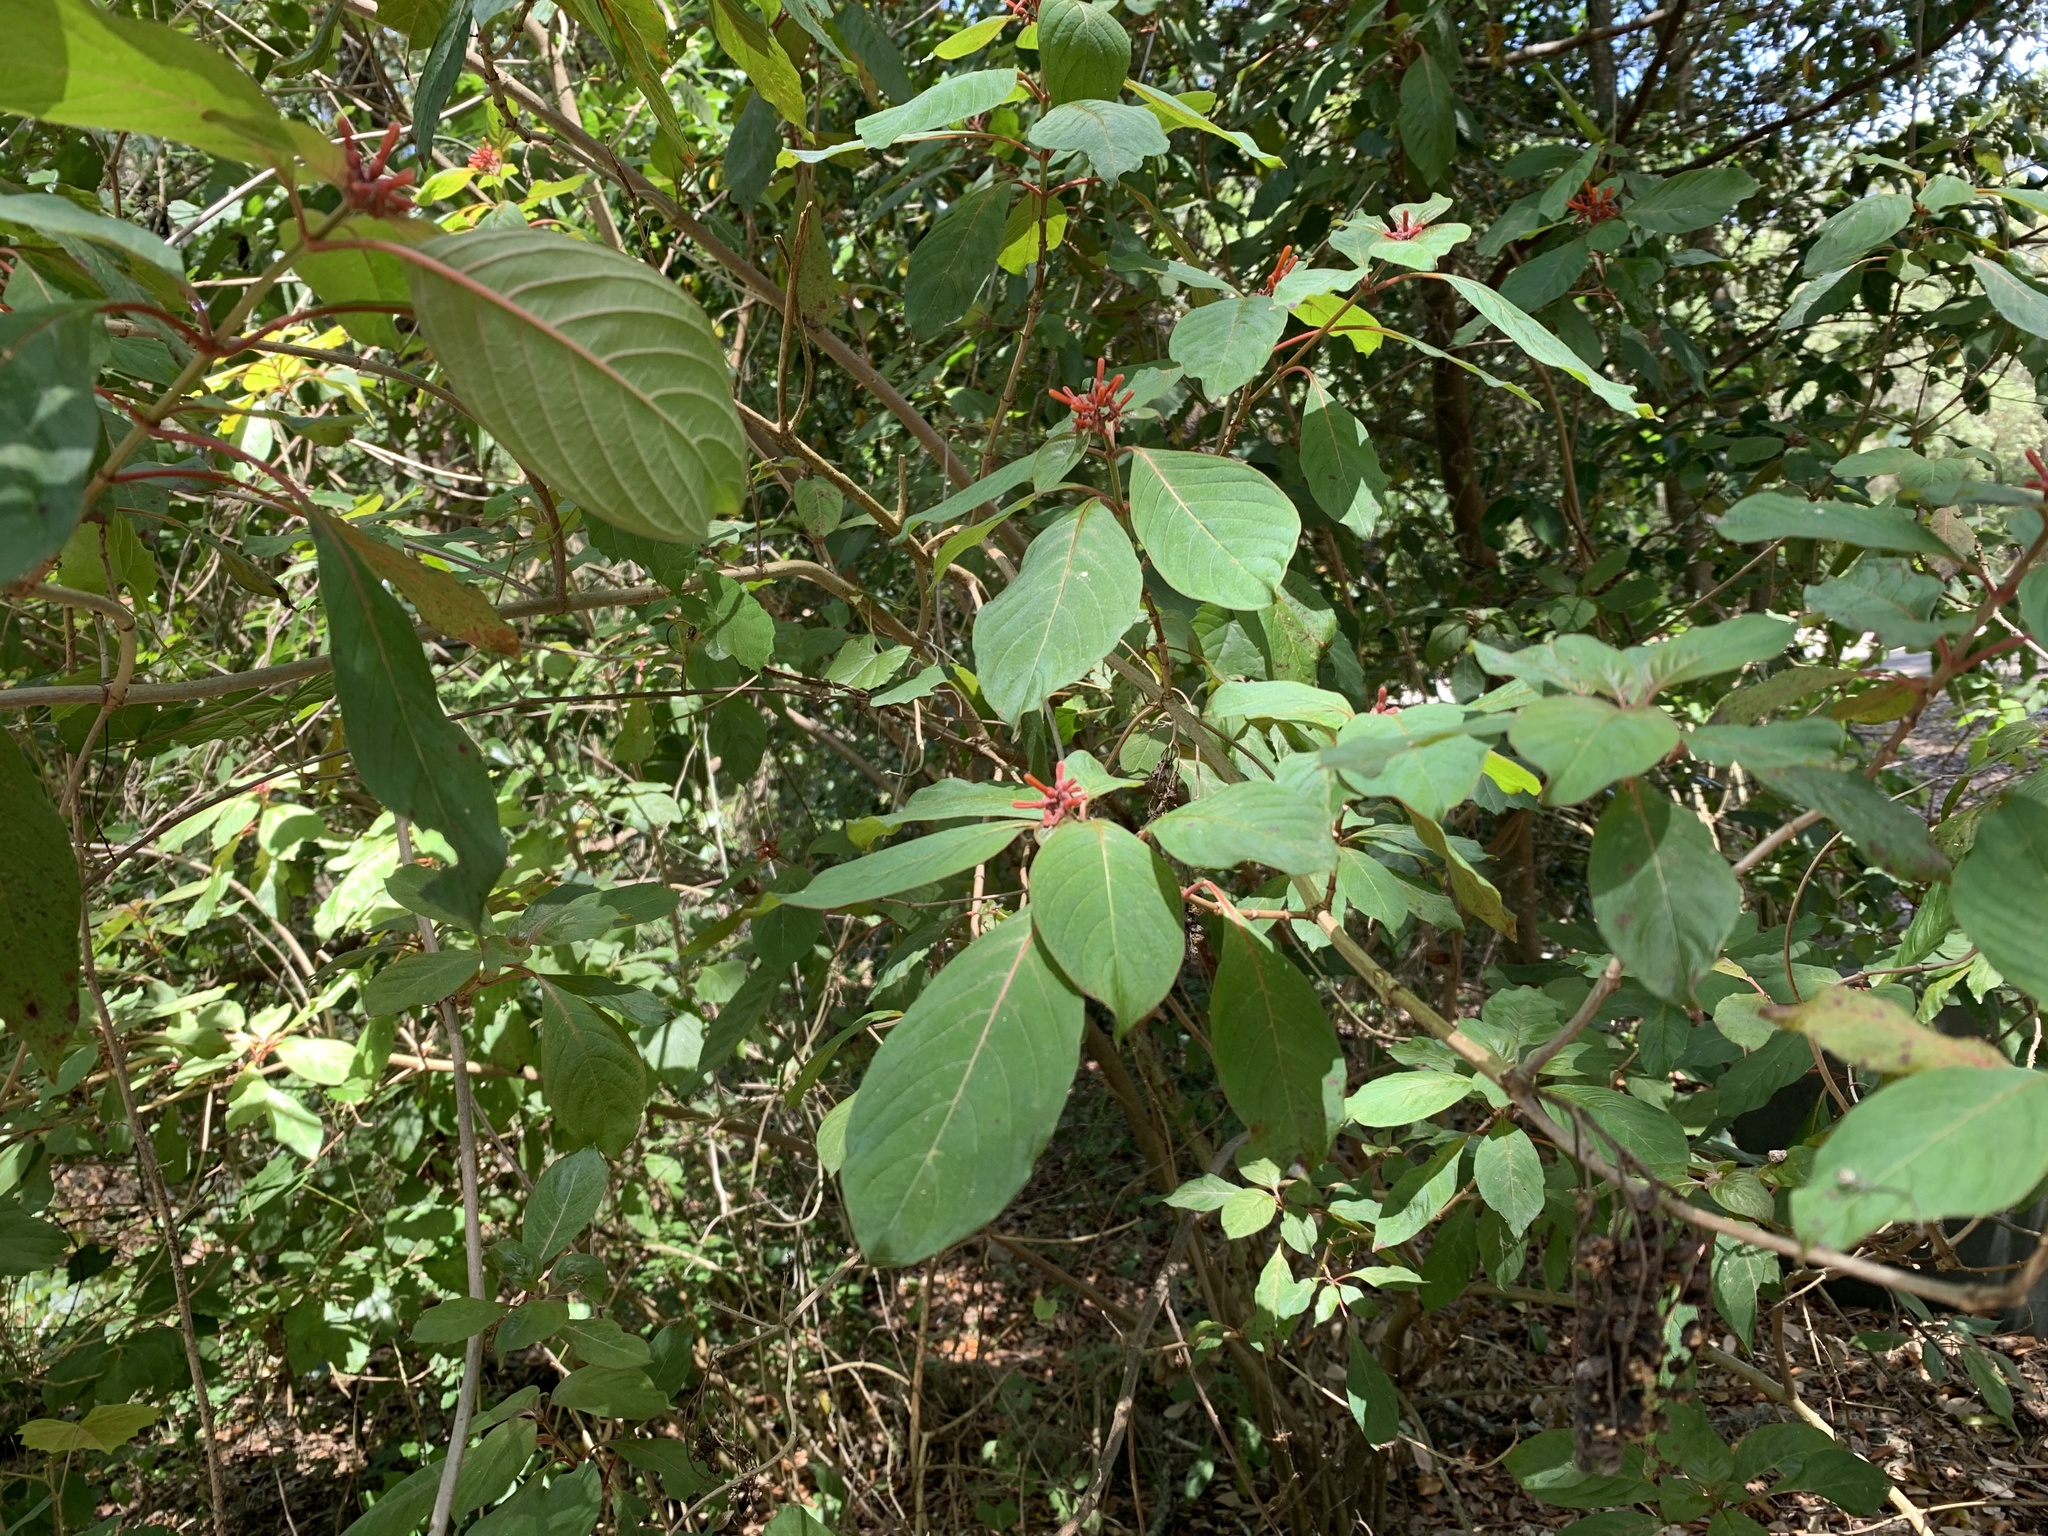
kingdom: Plantae
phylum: Tracheophyta
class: Magnoliopsida
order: Gentianales
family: Rubiaceae
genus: Hamelia
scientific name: Hamelia patens
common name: Redhead
